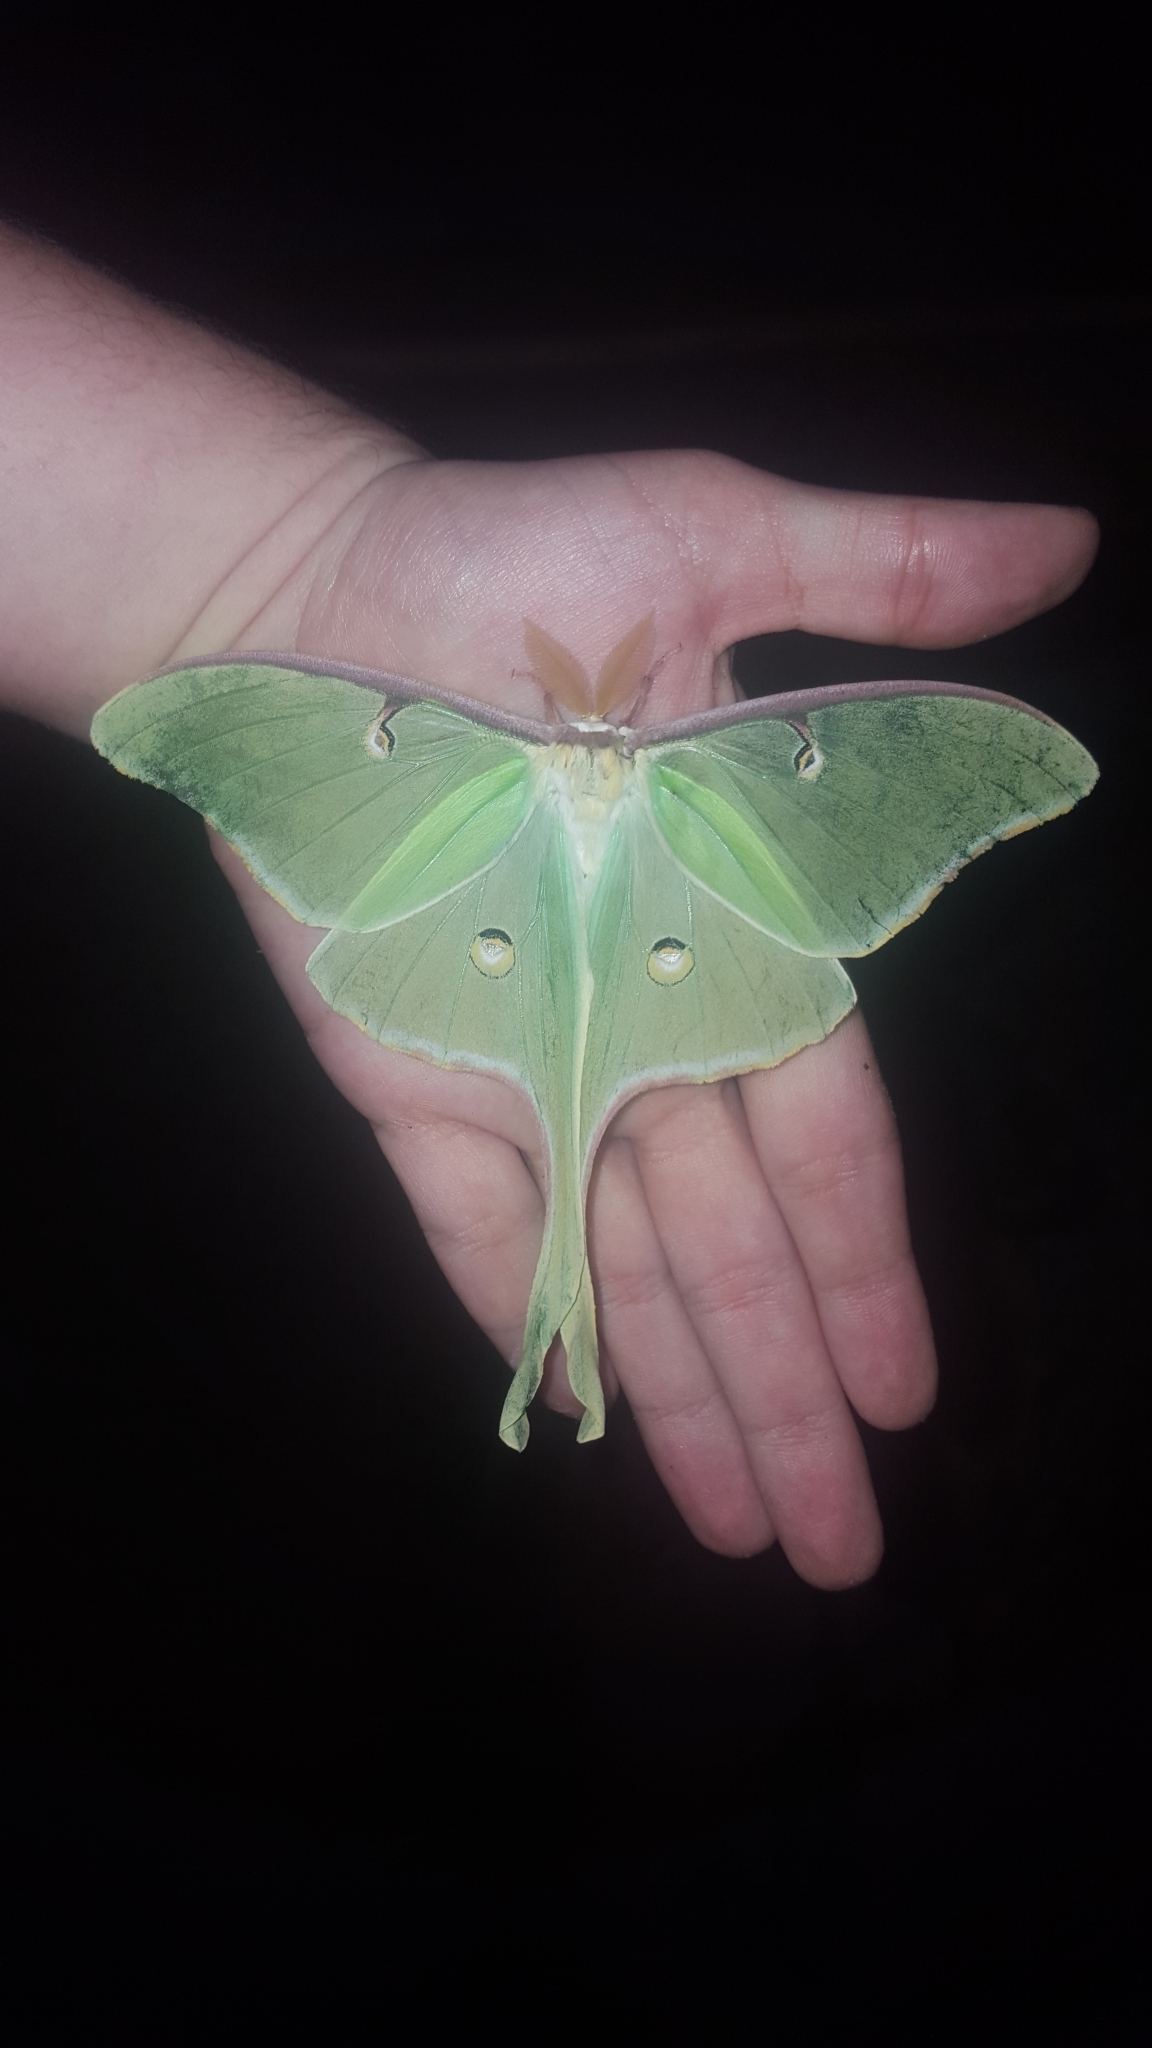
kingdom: Animalia
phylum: Arthropoda
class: Insecta
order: Lepidoptera
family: Saturniidae
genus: Actias
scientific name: Actias luna
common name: Luna moth
